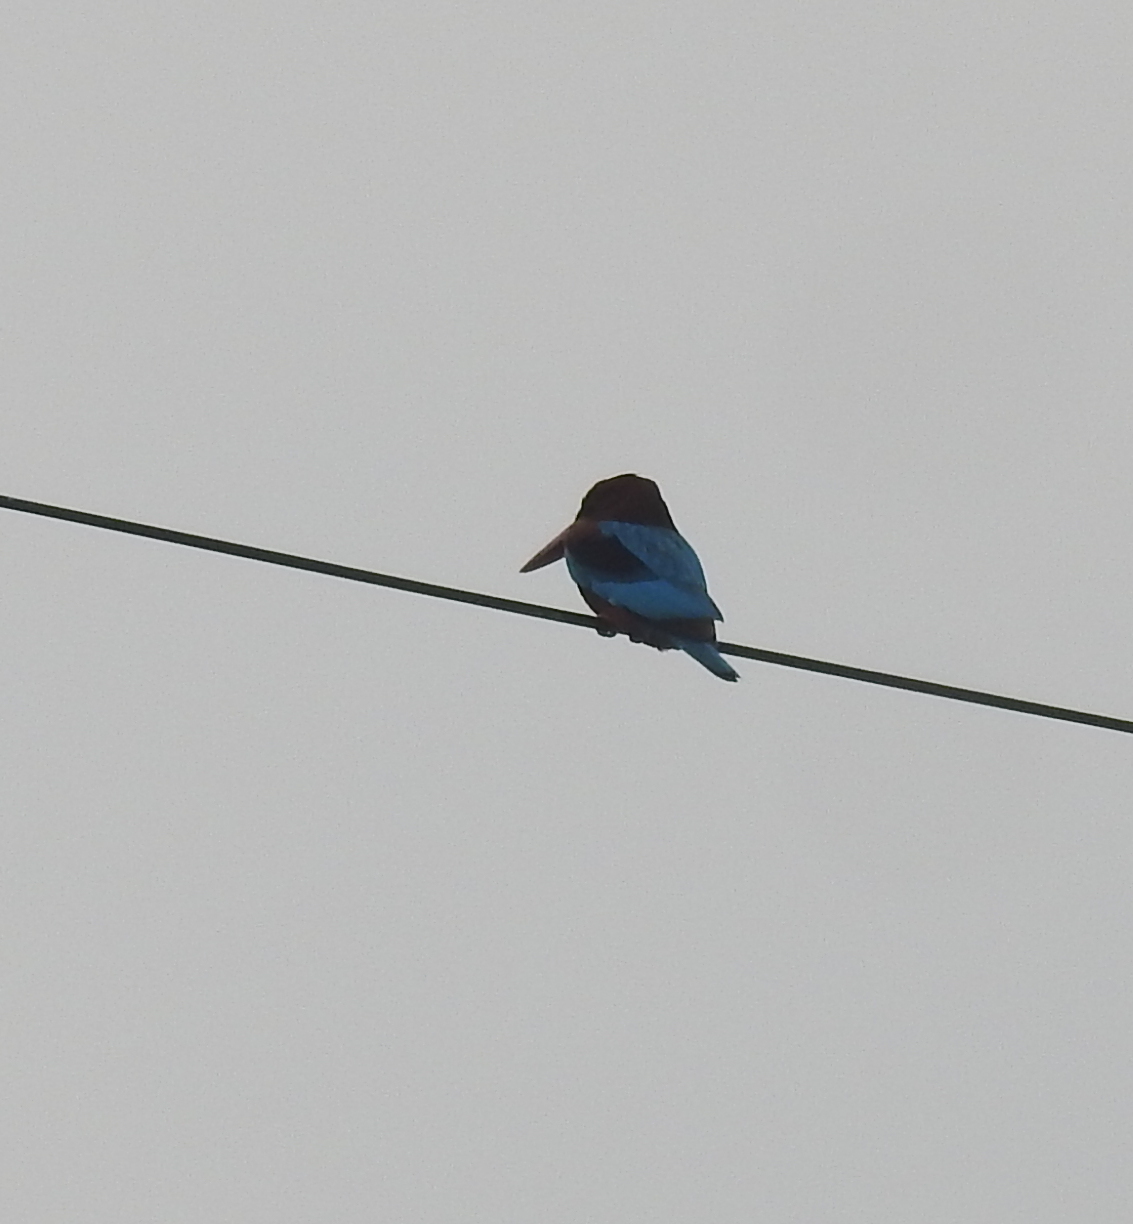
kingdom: Animalia
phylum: Chordata
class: Aves
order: Coraciiformes
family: Alcedinidae
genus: Halcyon
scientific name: Halcyon smyrnensis
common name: White-throated kingfisher
